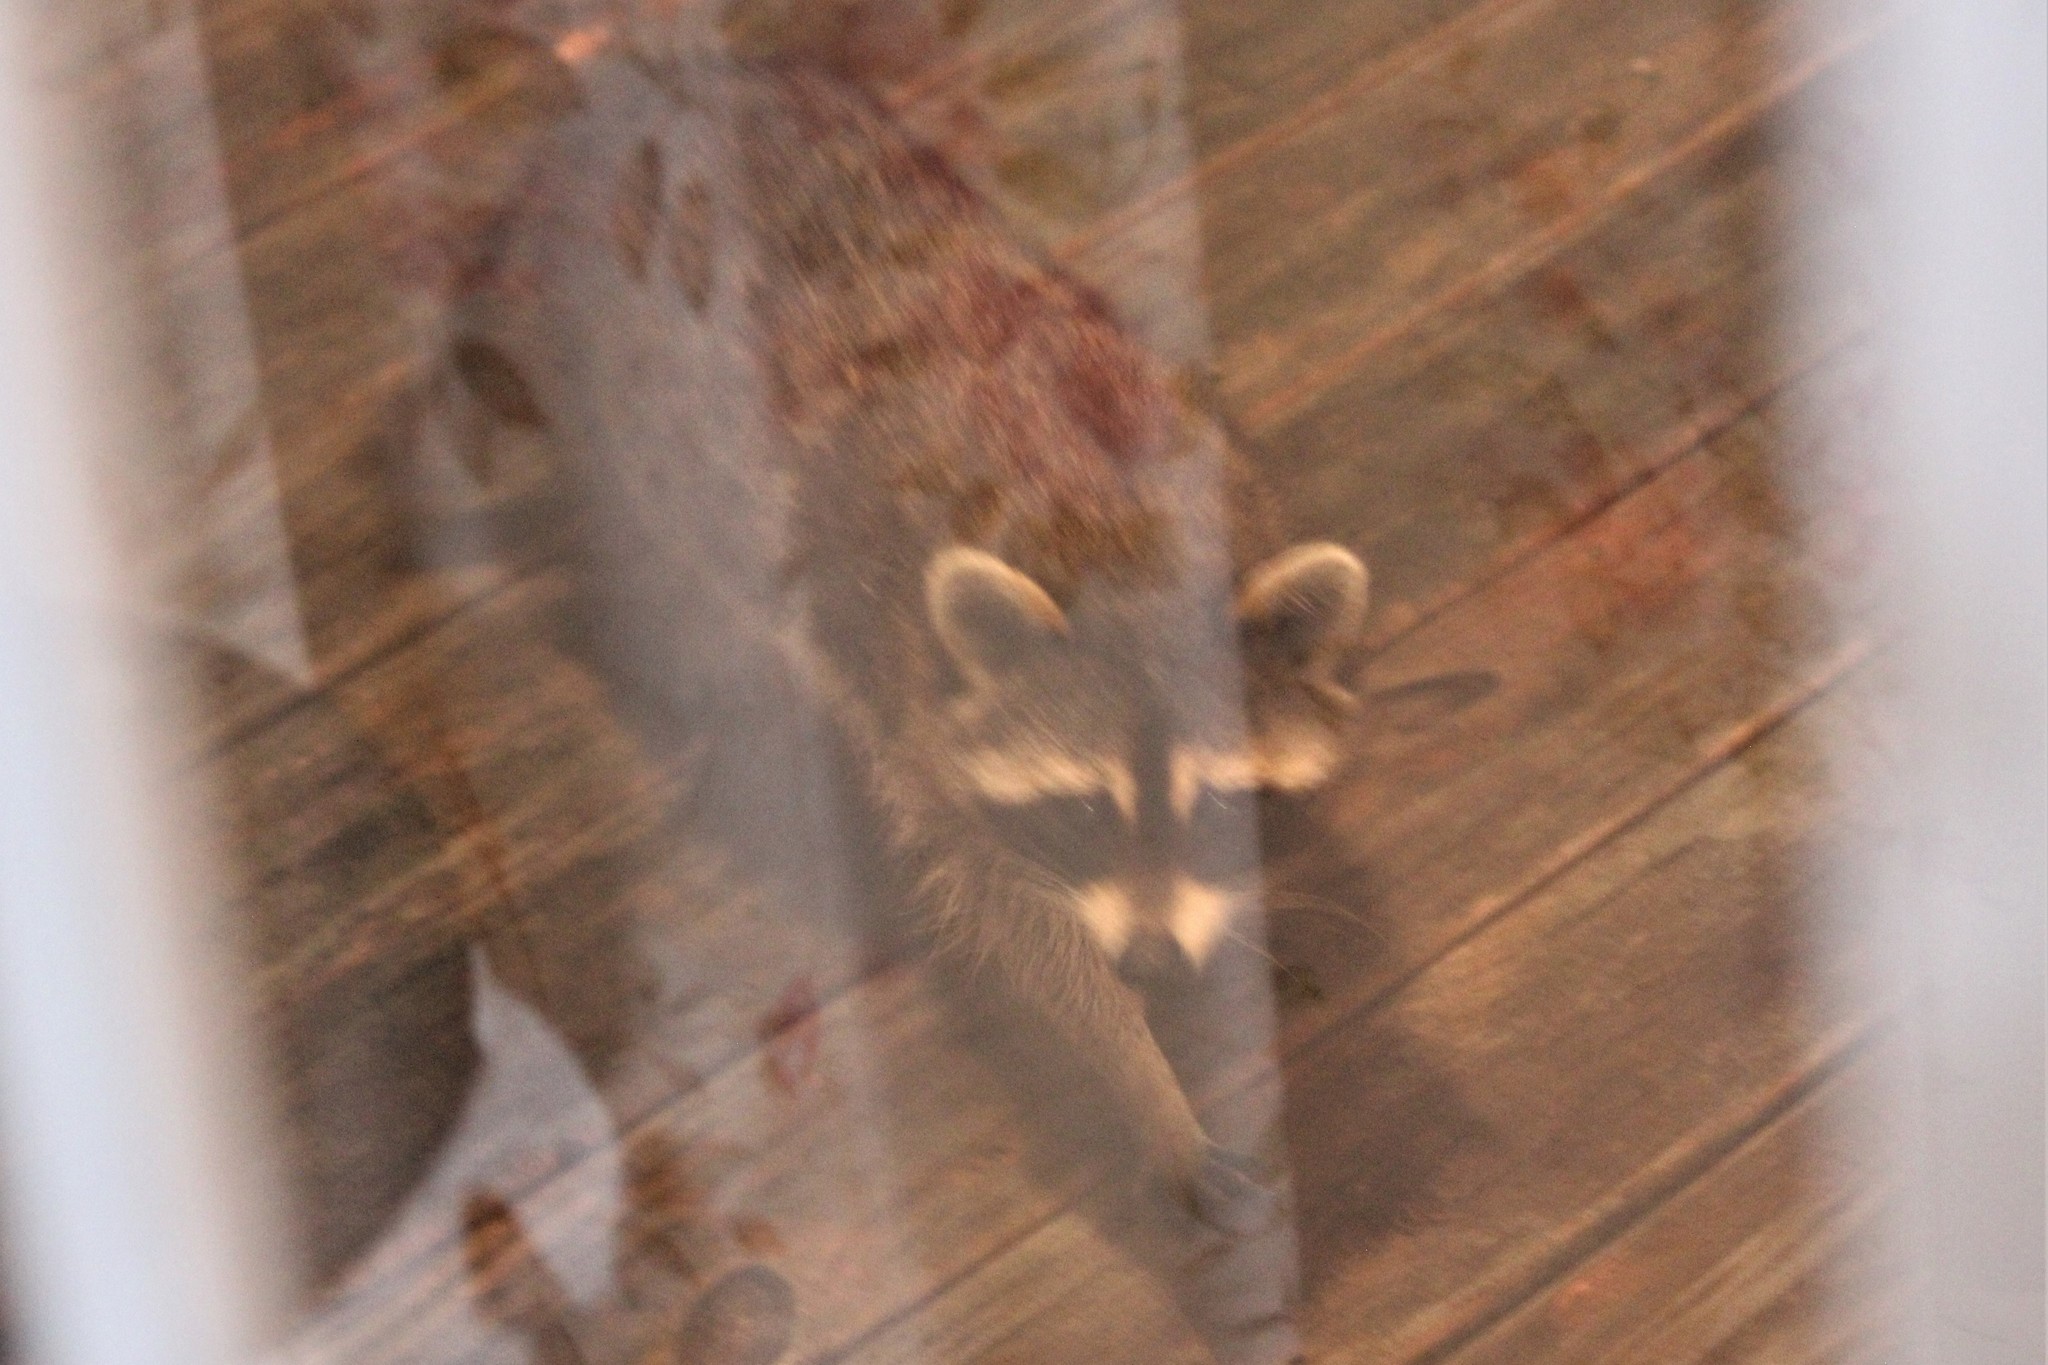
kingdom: Animalia
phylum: Chordata
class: Mammalia
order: Carnivora
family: Procyonidae
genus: Procyon
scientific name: Procyon lotor
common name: Raccoon
